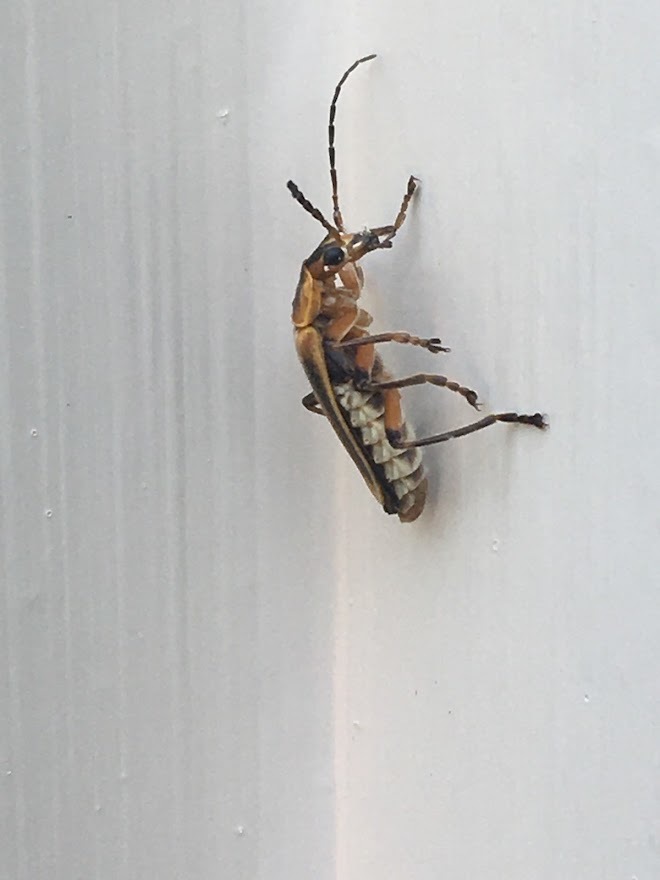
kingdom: Animalia
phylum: Arthropoda
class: Insecta
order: Coleoptera
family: Cantharidae
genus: Chauliognathus
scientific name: Chauliognathus marginatus
